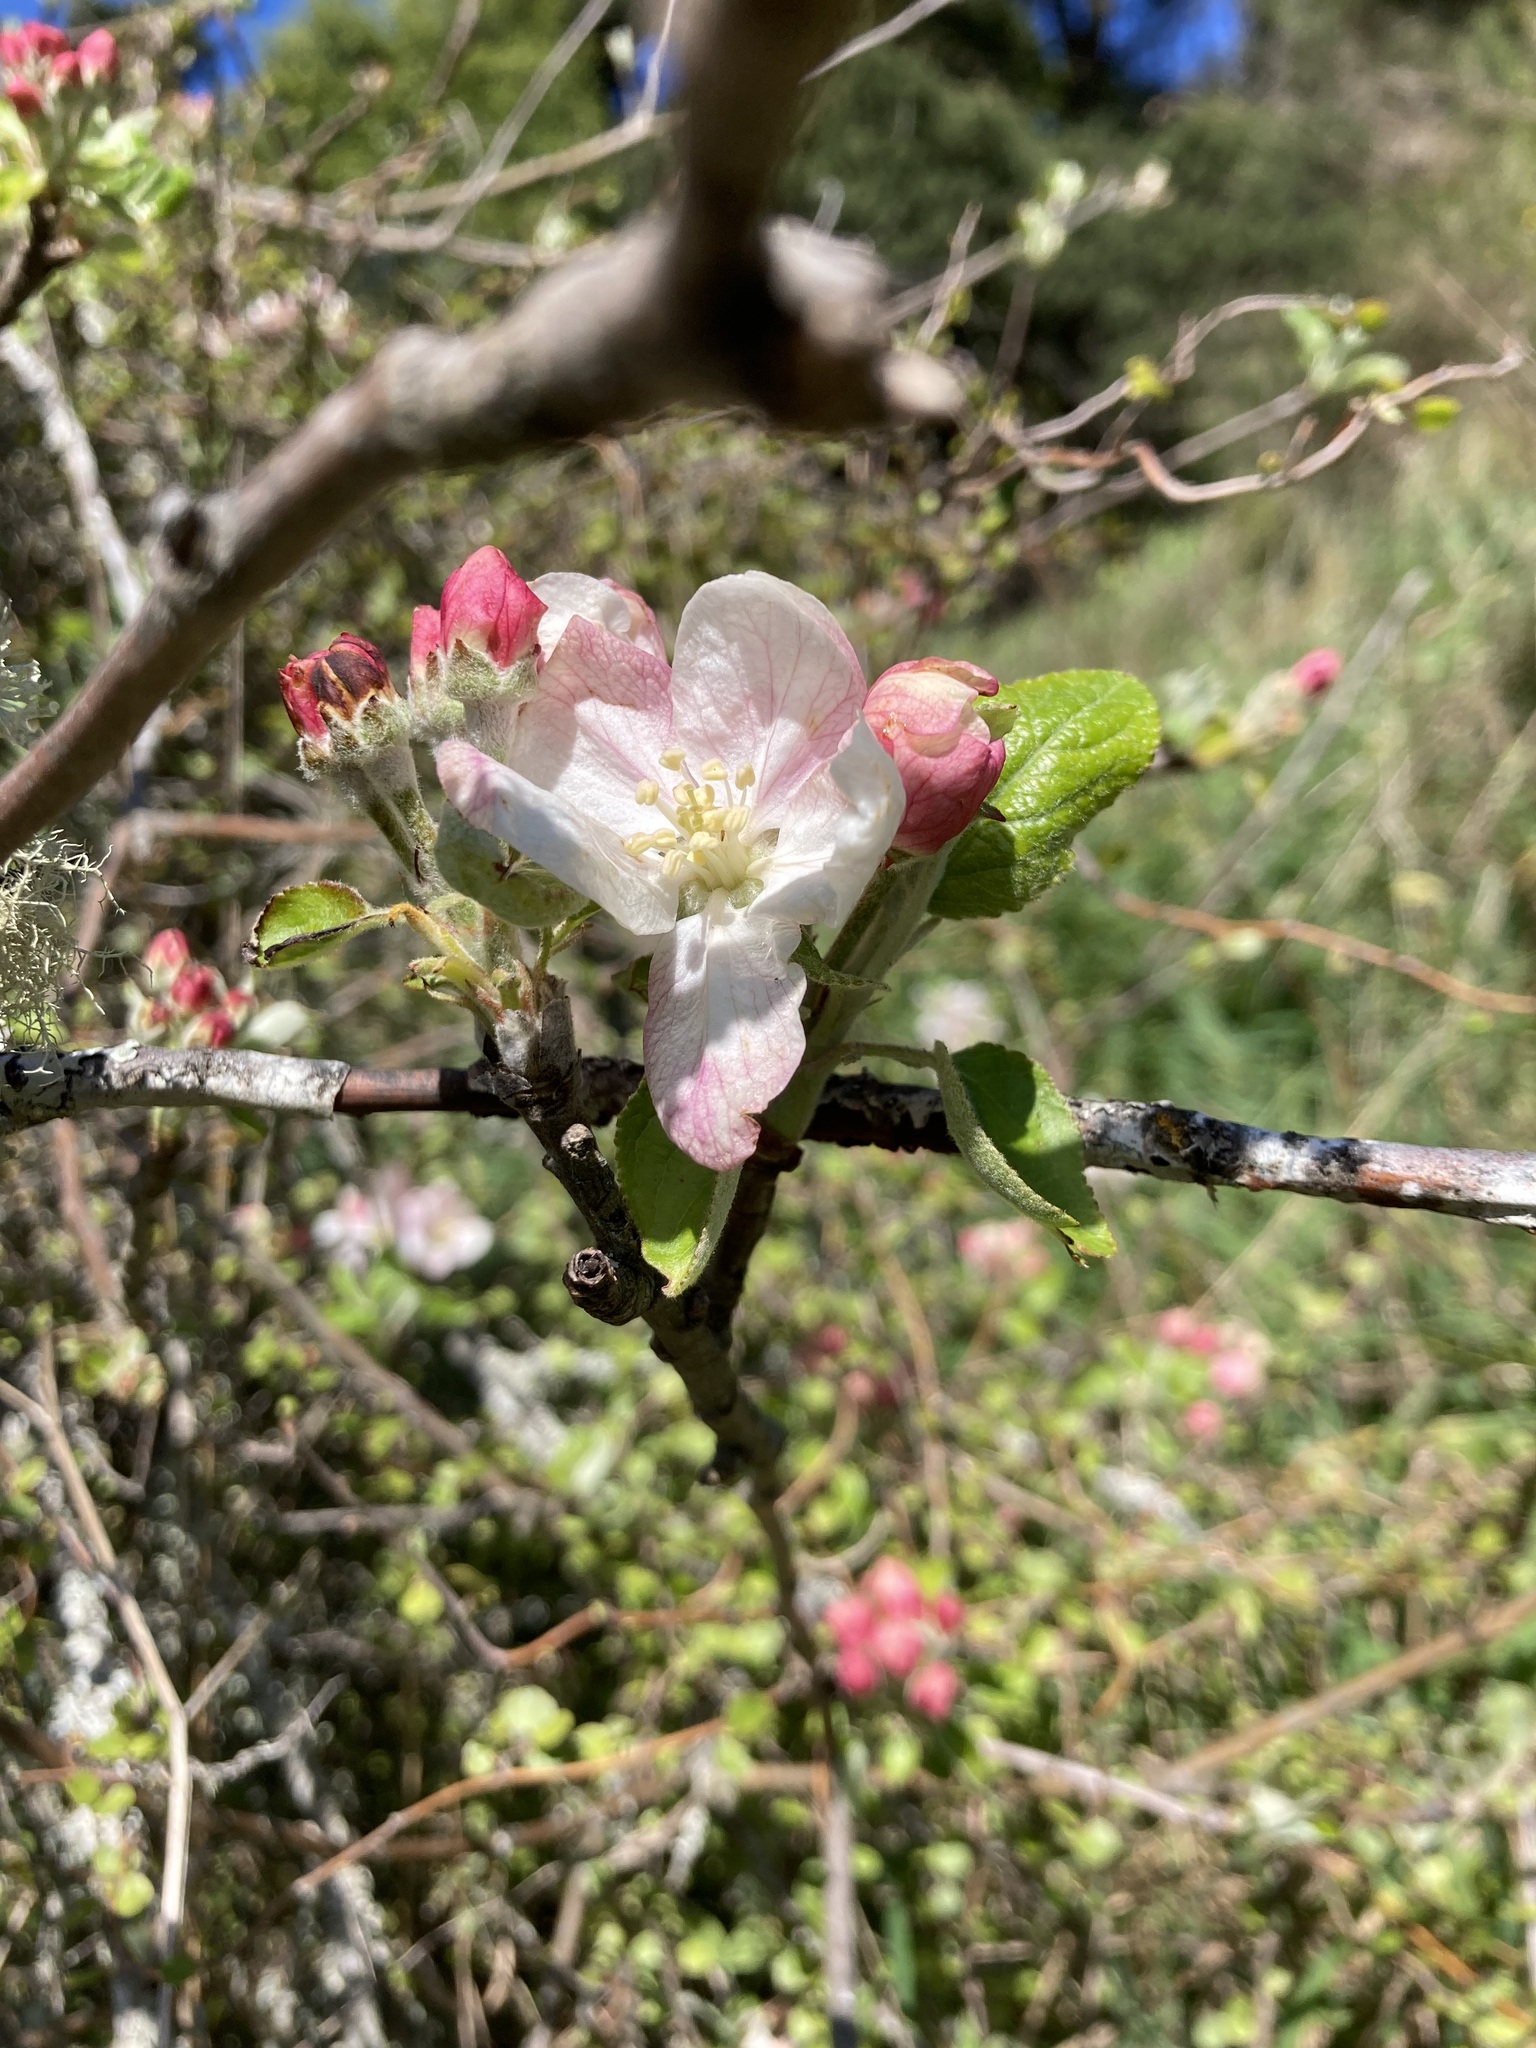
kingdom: Plantae
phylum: Tracheophyta
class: Magnoliopsida
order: Rosales
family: Rosaceae
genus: Malus
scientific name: Malus domestica
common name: Apple
